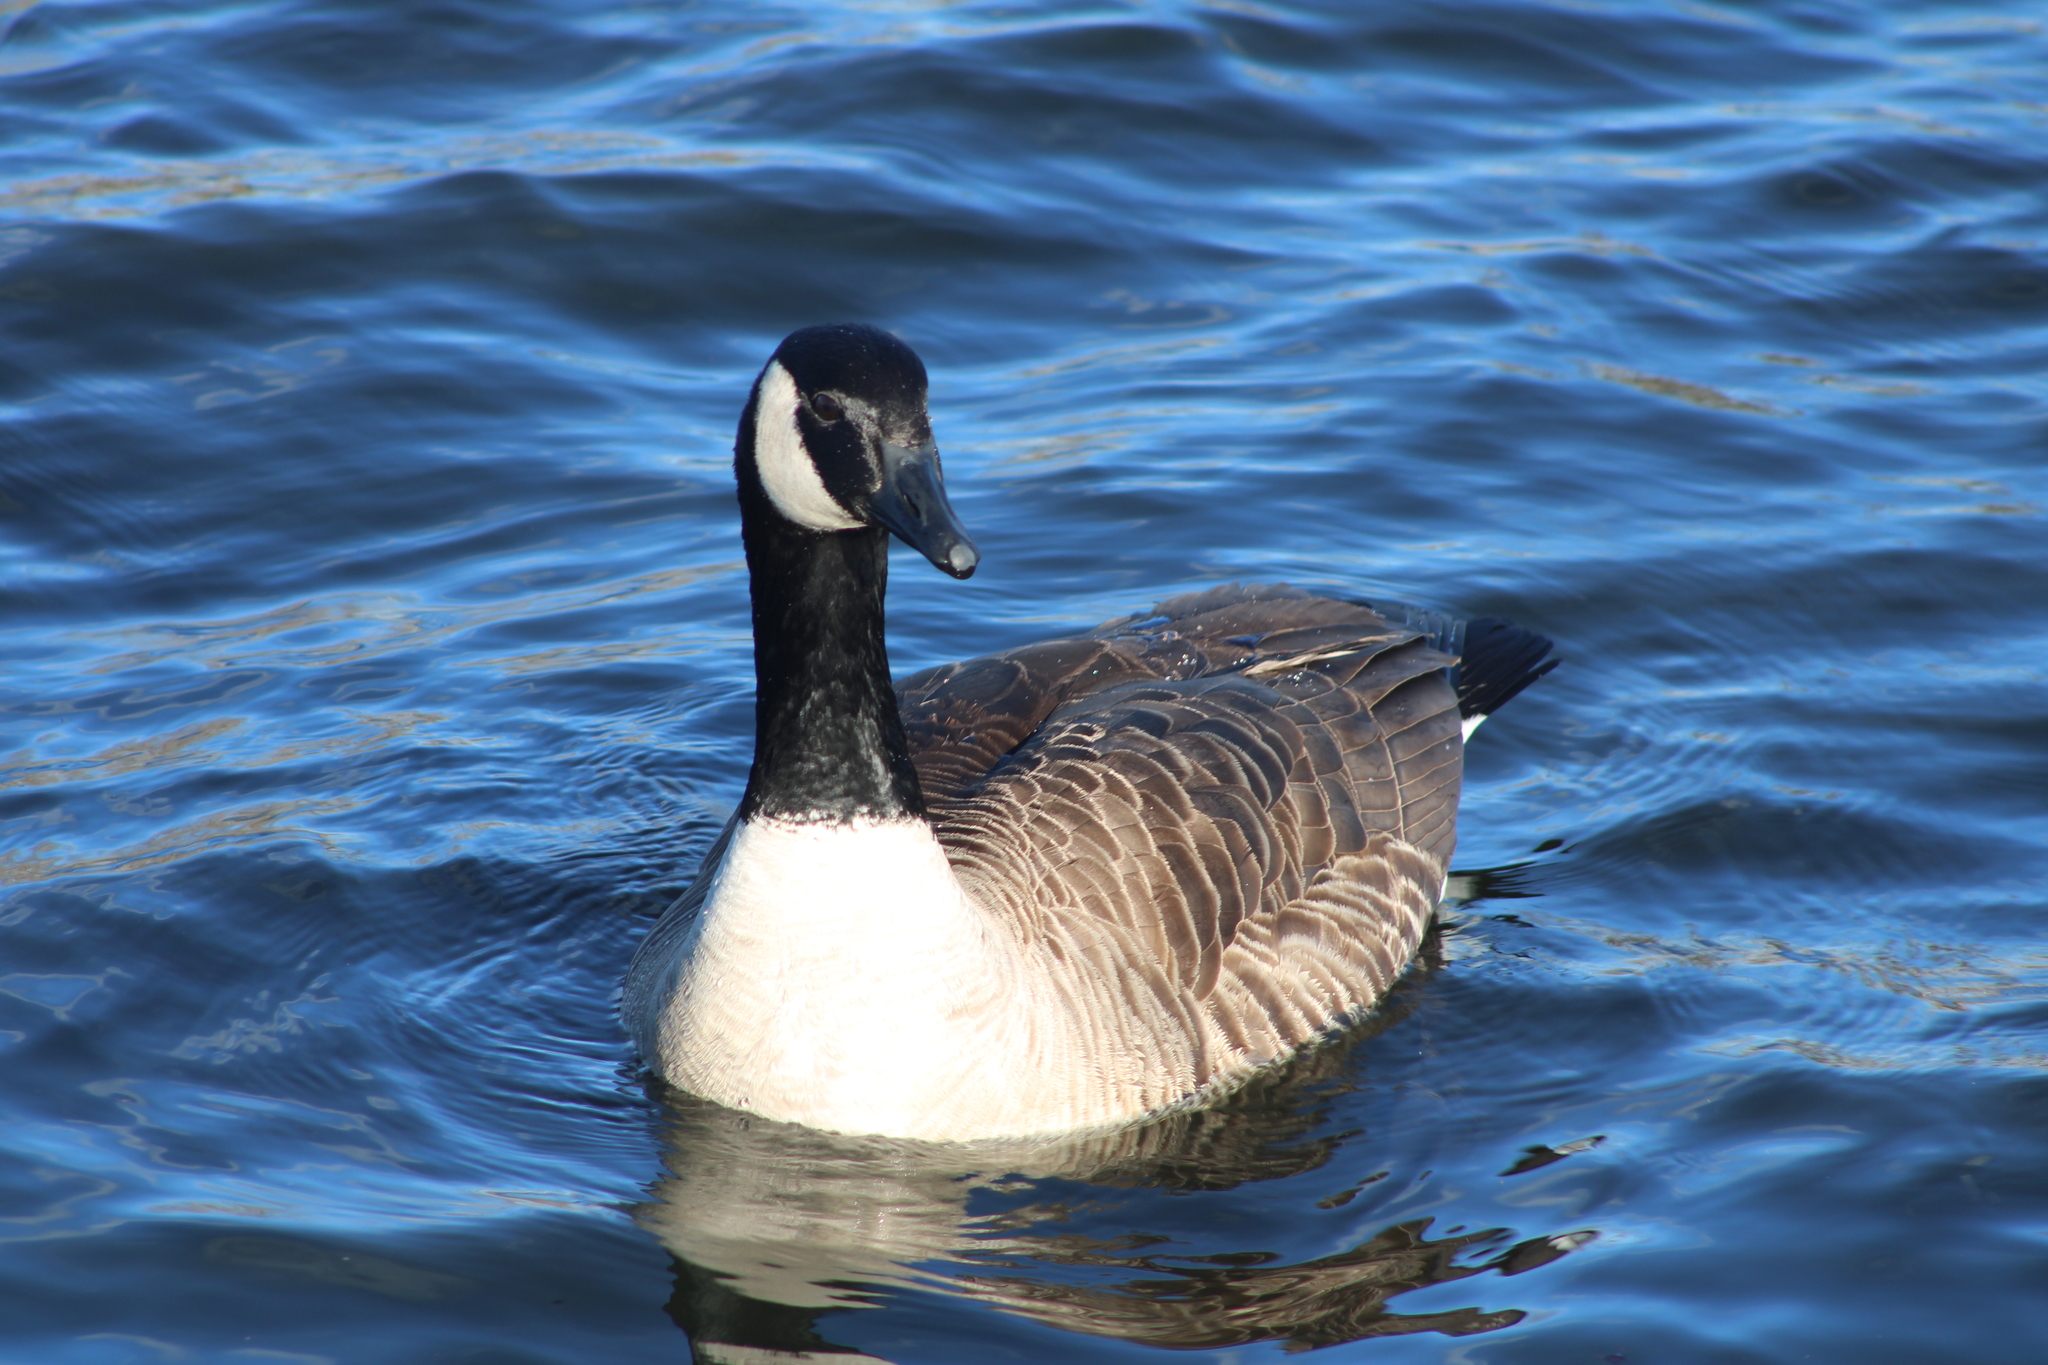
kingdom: Animalia
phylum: Chordata
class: Aves
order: Anseriformes
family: Anatidae
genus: Branta
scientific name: Branta canadensis
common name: Canada goose
